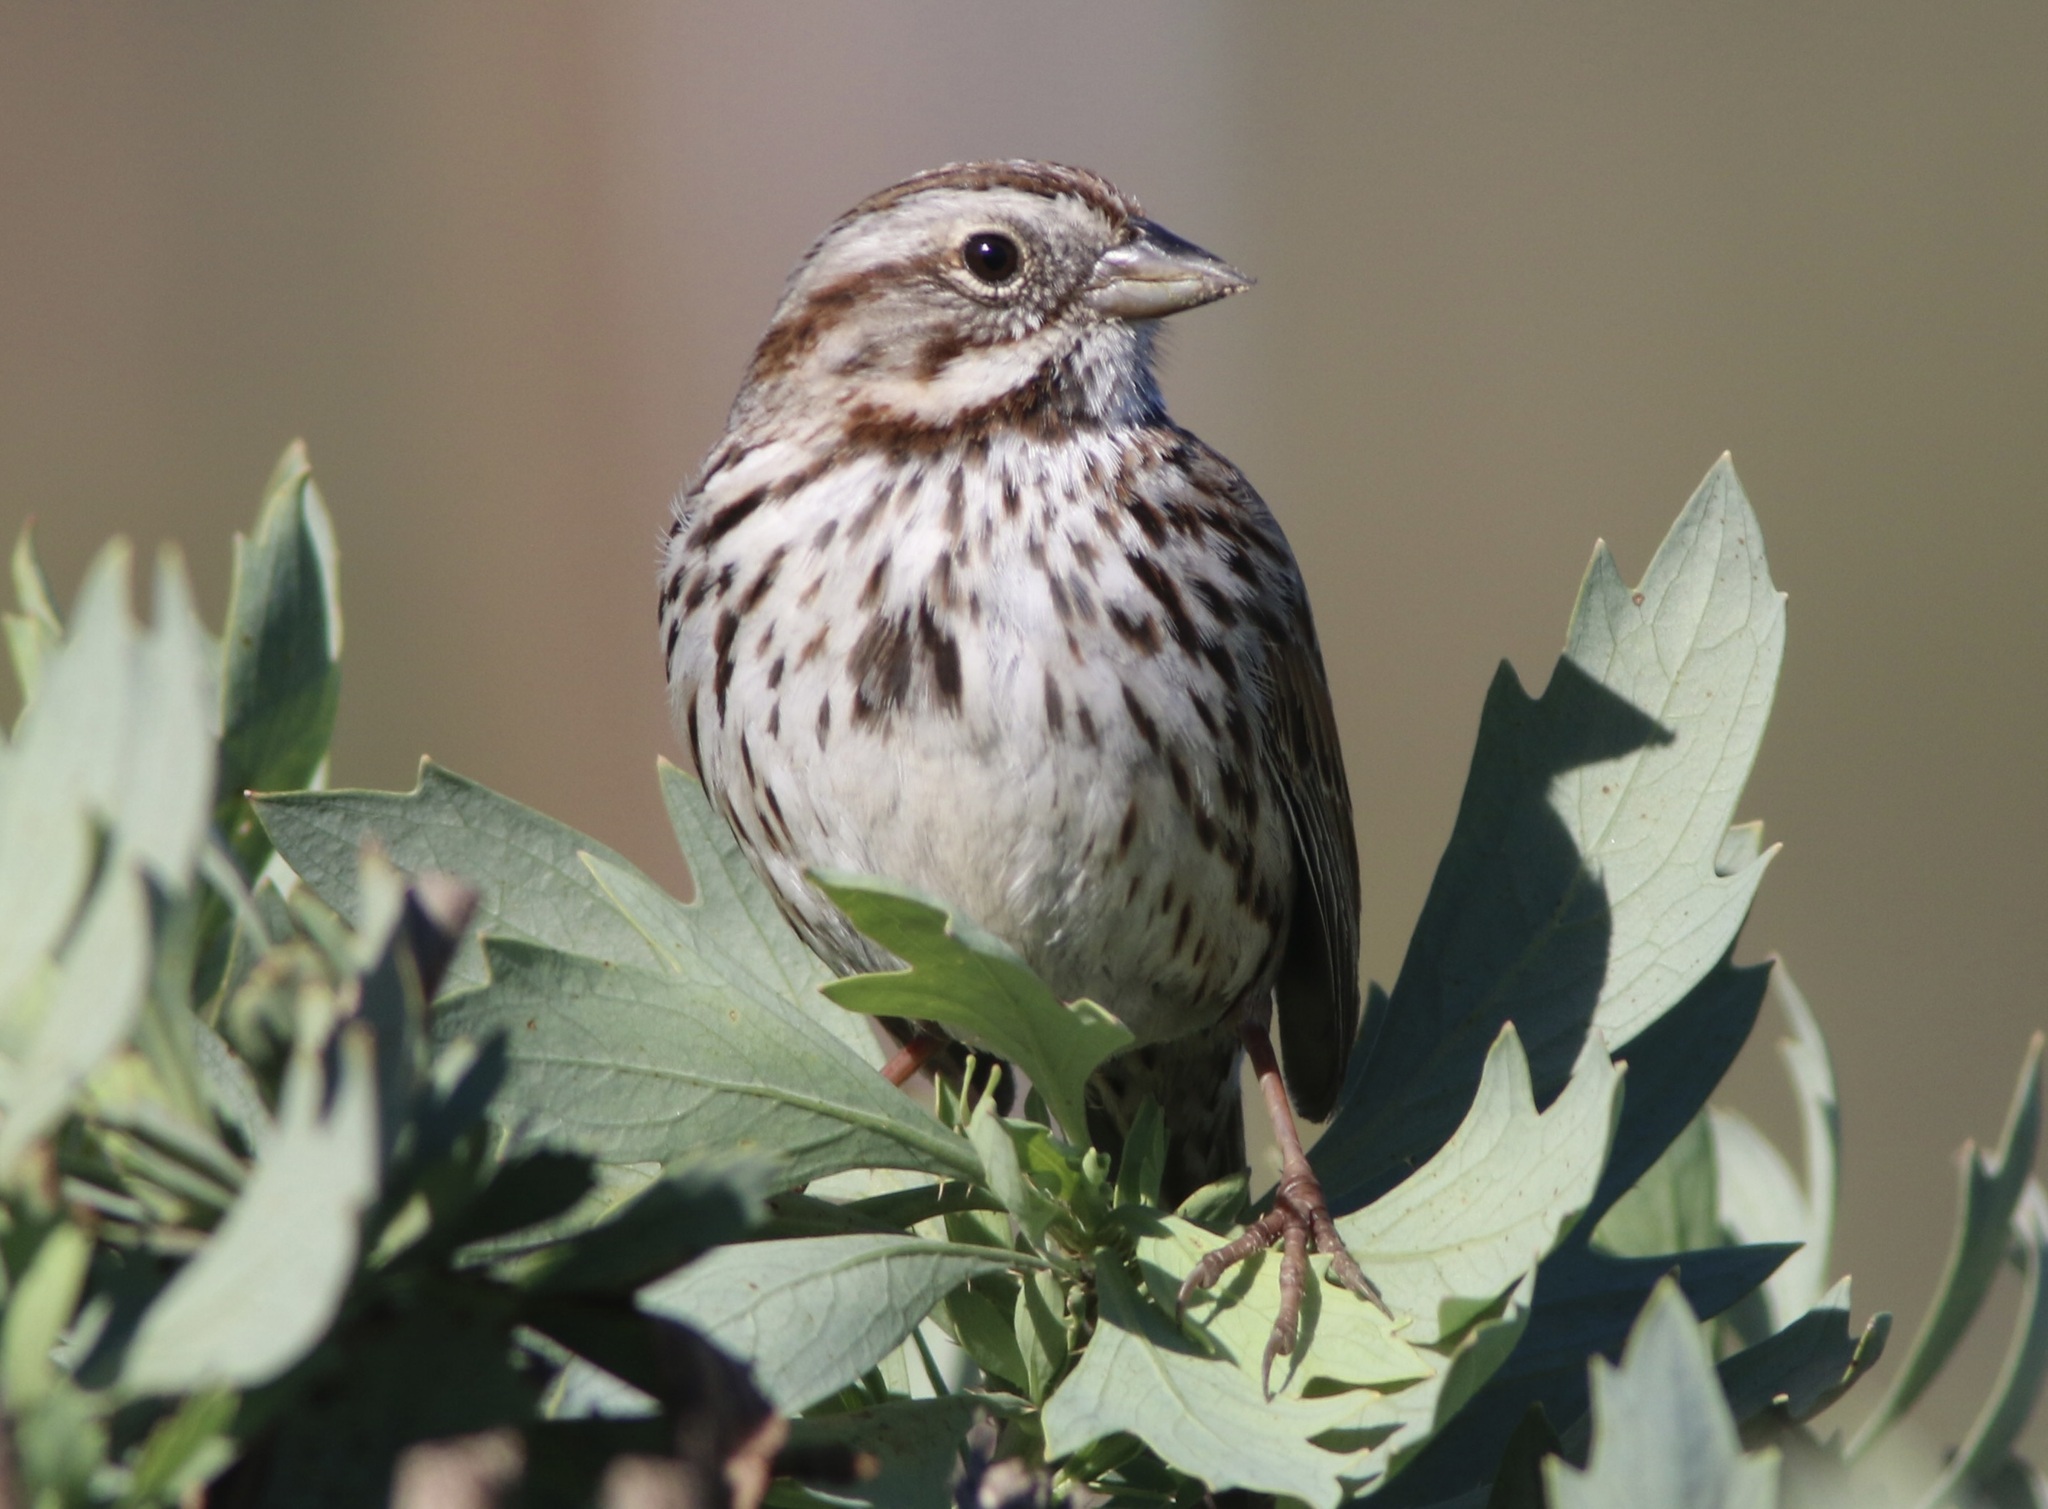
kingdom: Animalia
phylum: Chordata
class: Aves
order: Passeriformes
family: Passerellidae
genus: Melospiza
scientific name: Melospiza melodia
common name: Song sparrow
